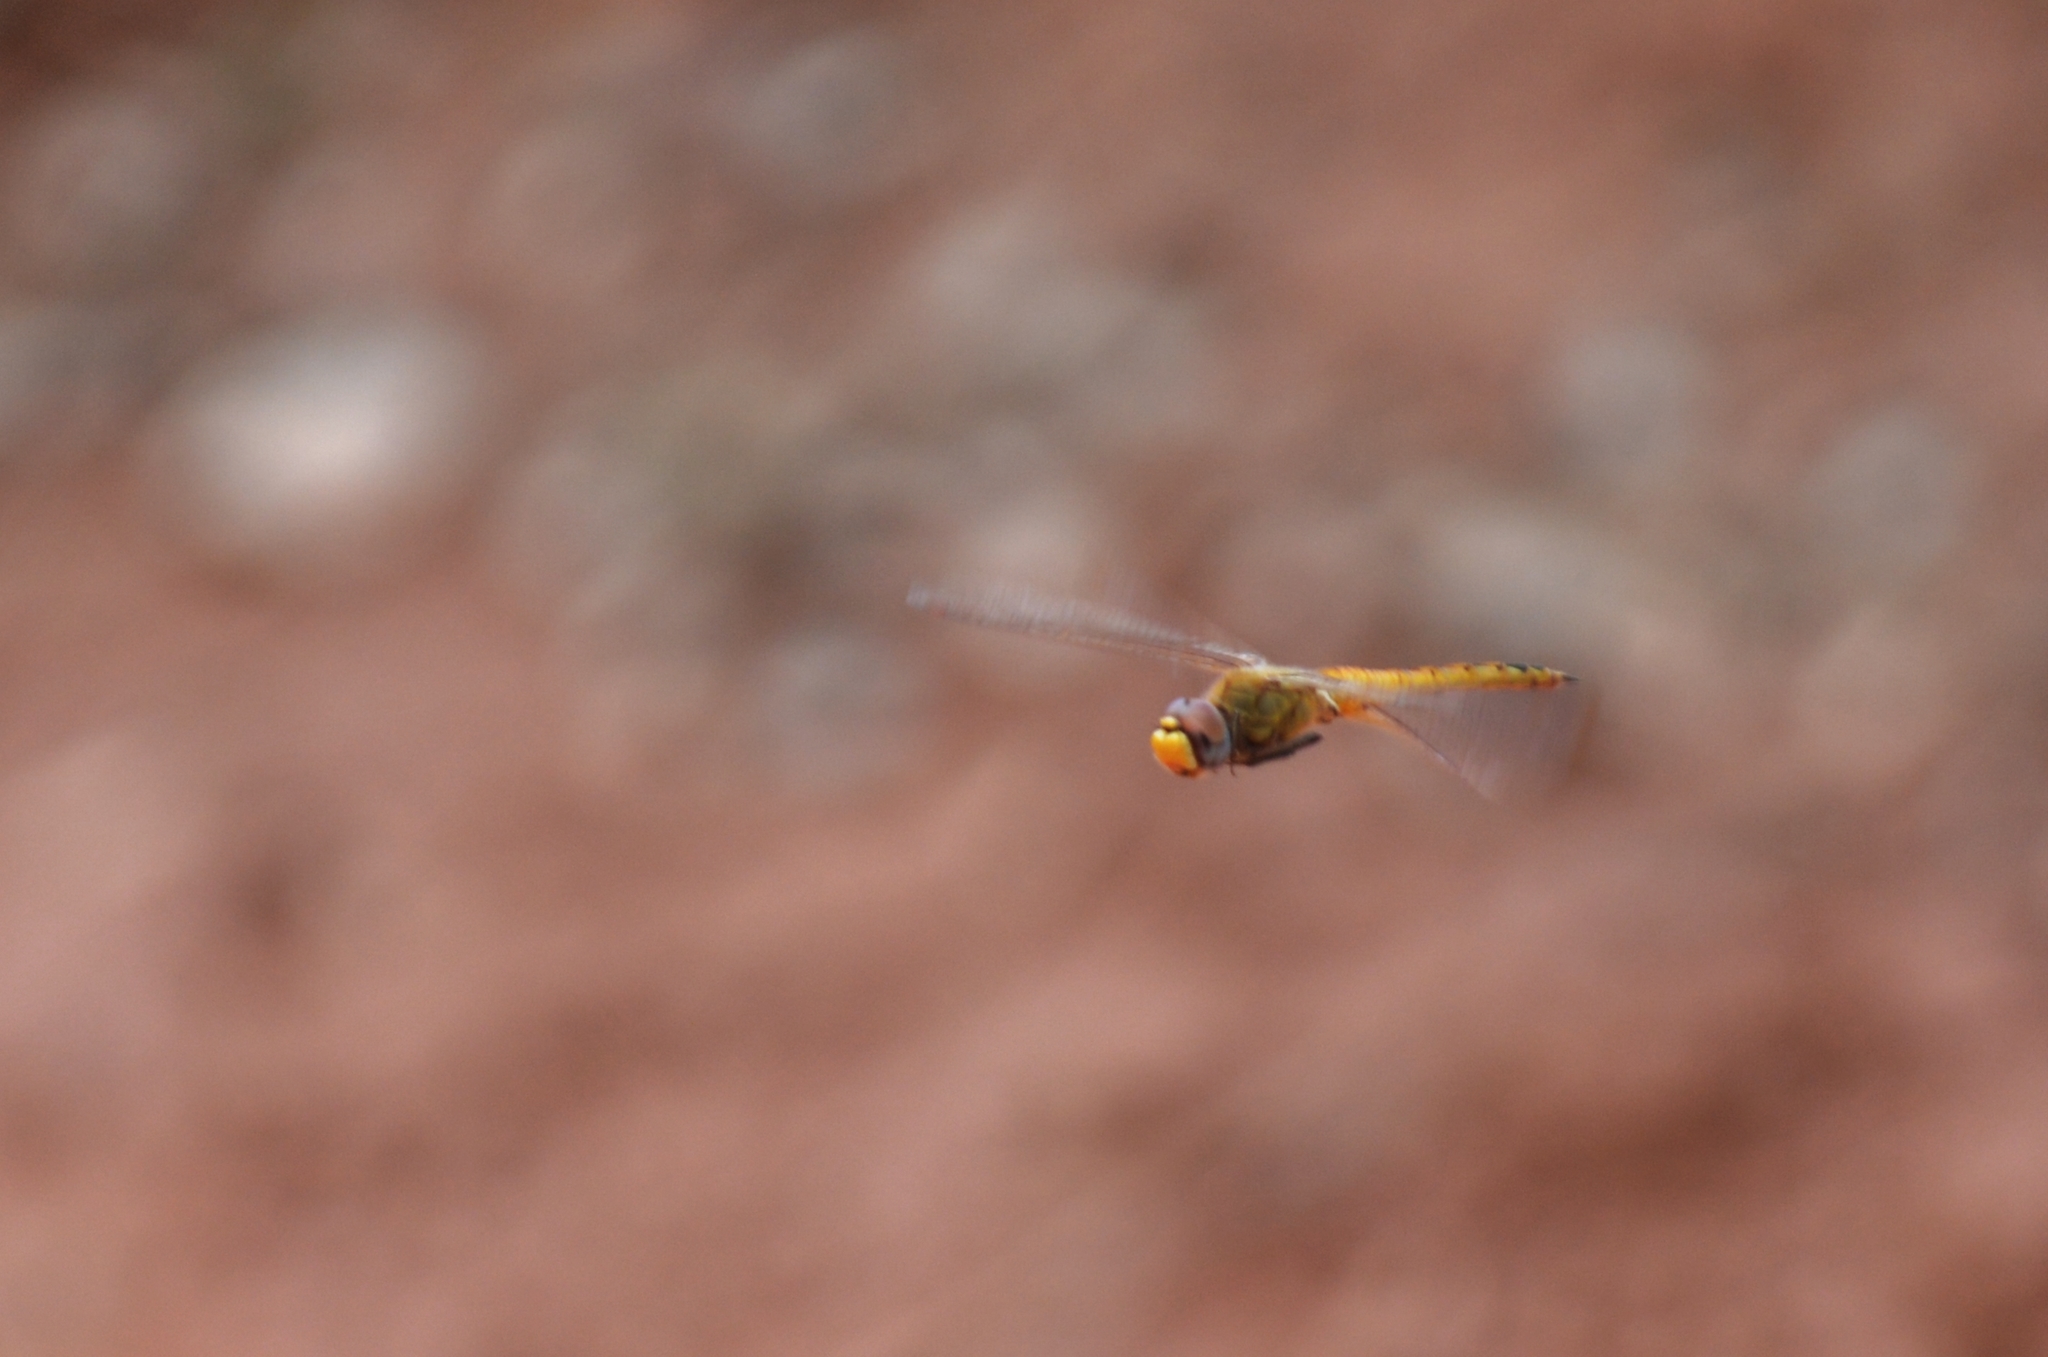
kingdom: Animalia
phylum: Arthropoda
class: Insecta
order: Odonata
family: Libellulidae
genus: Pantala
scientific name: Pantala flavescens
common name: Wandering glider
